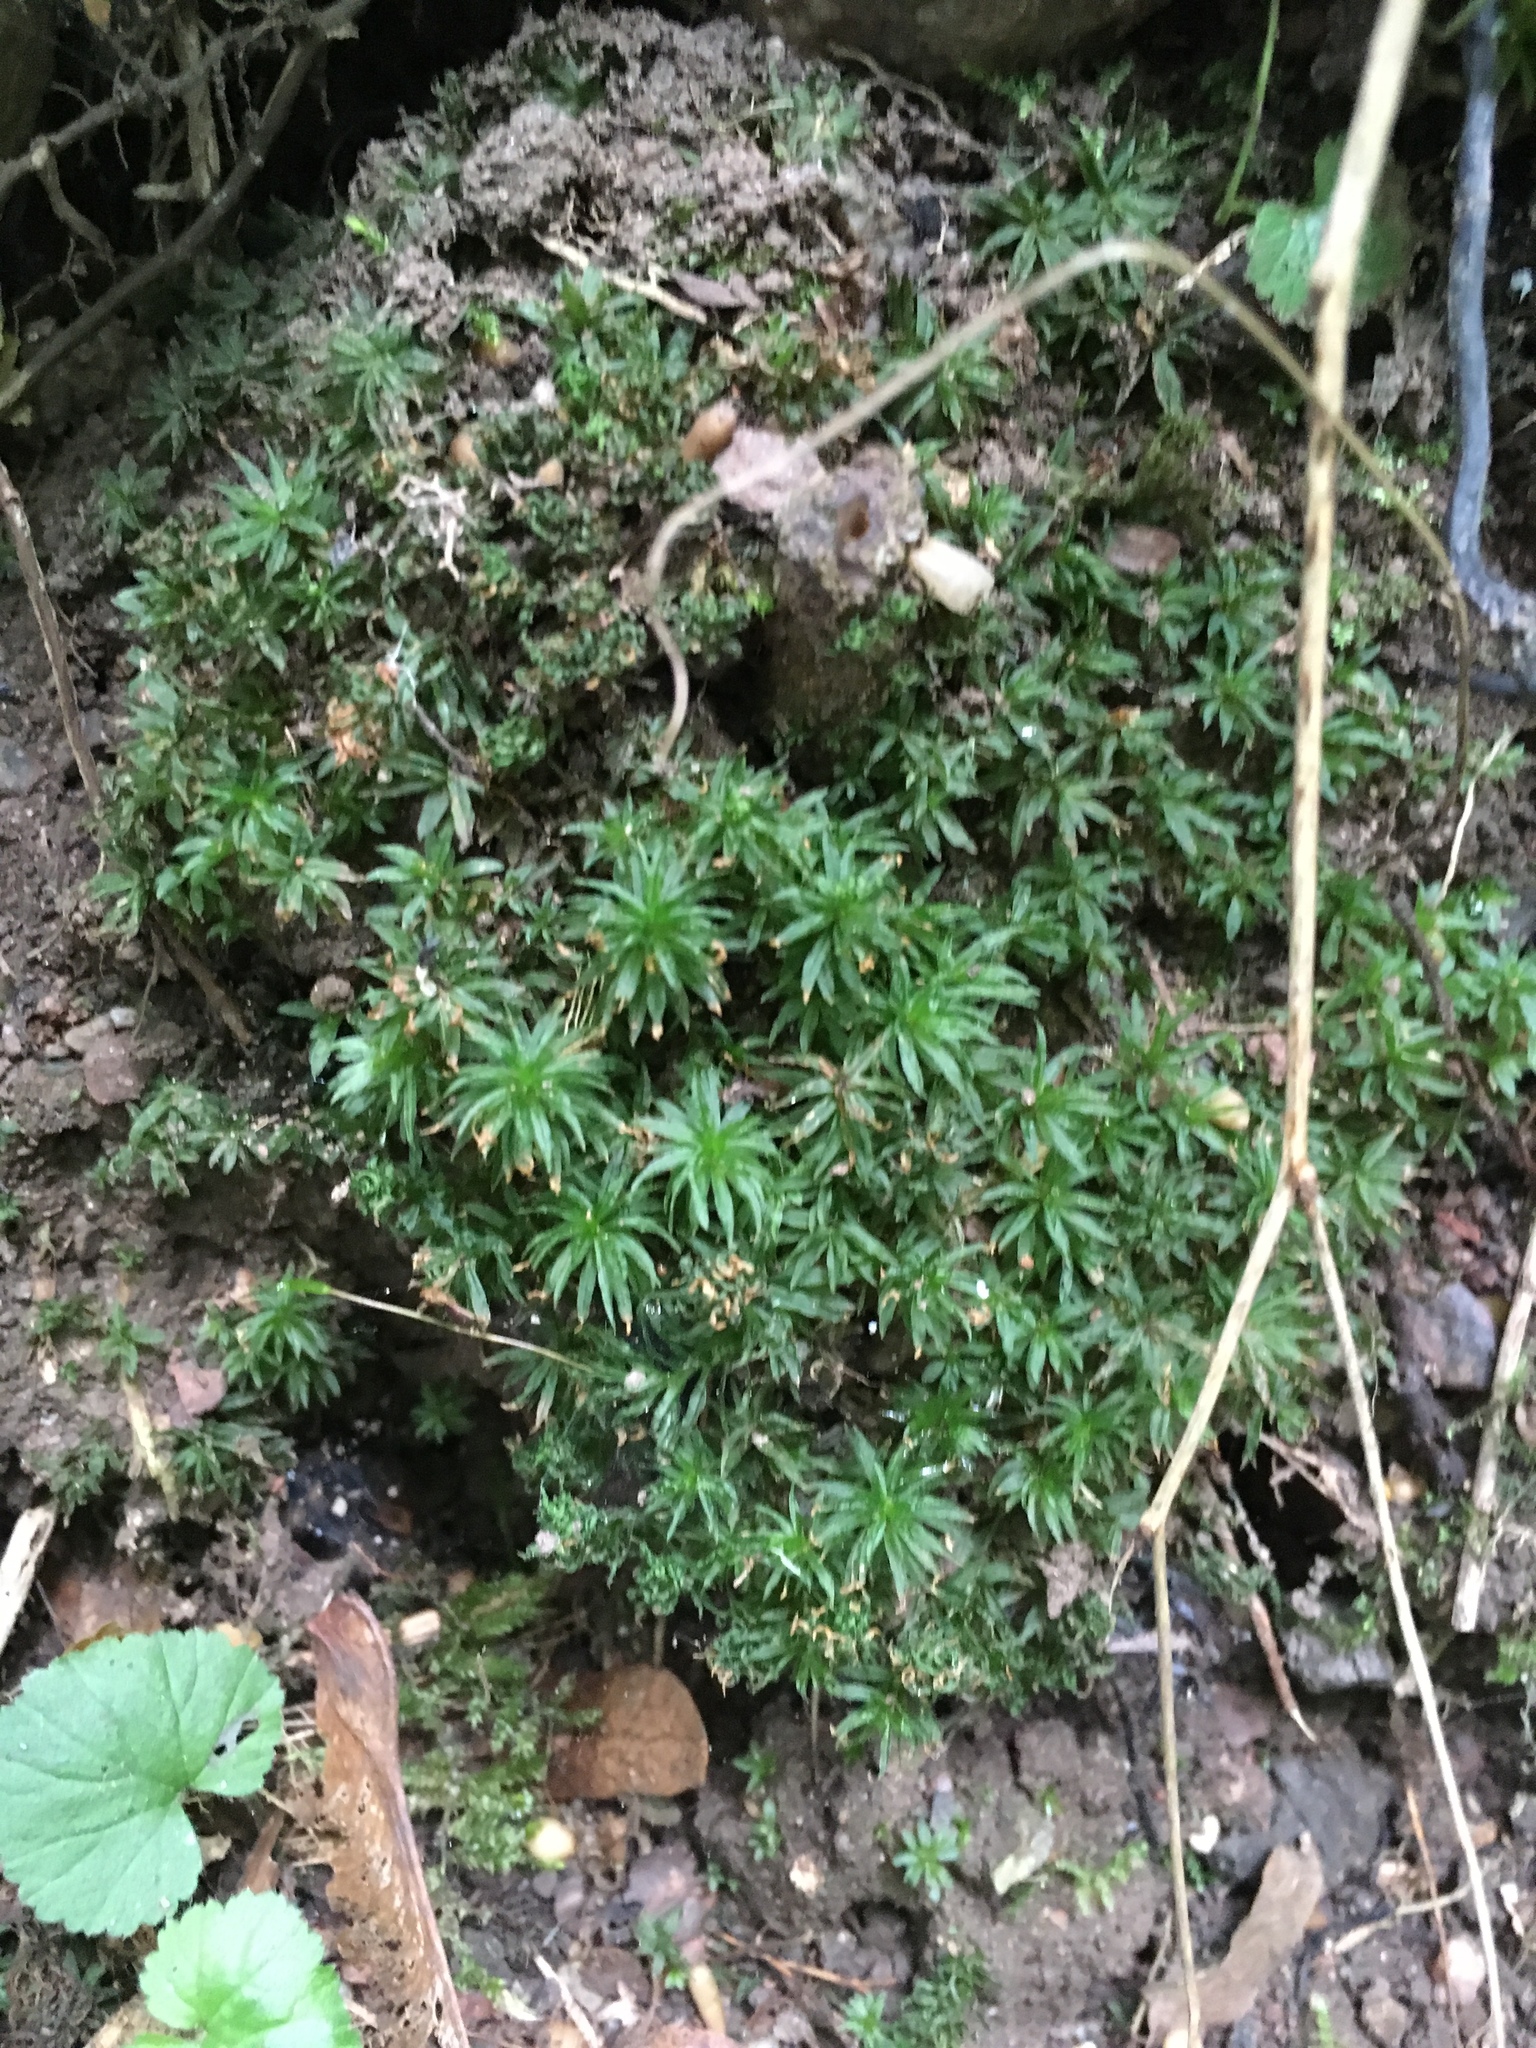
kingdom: Plantae
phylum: Bryophyta
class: Polytrichopsida
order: Polytrichales
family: Polytrichaceae
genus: Atrichum
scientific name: Atrichum undulatum
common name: Common smoothcap
